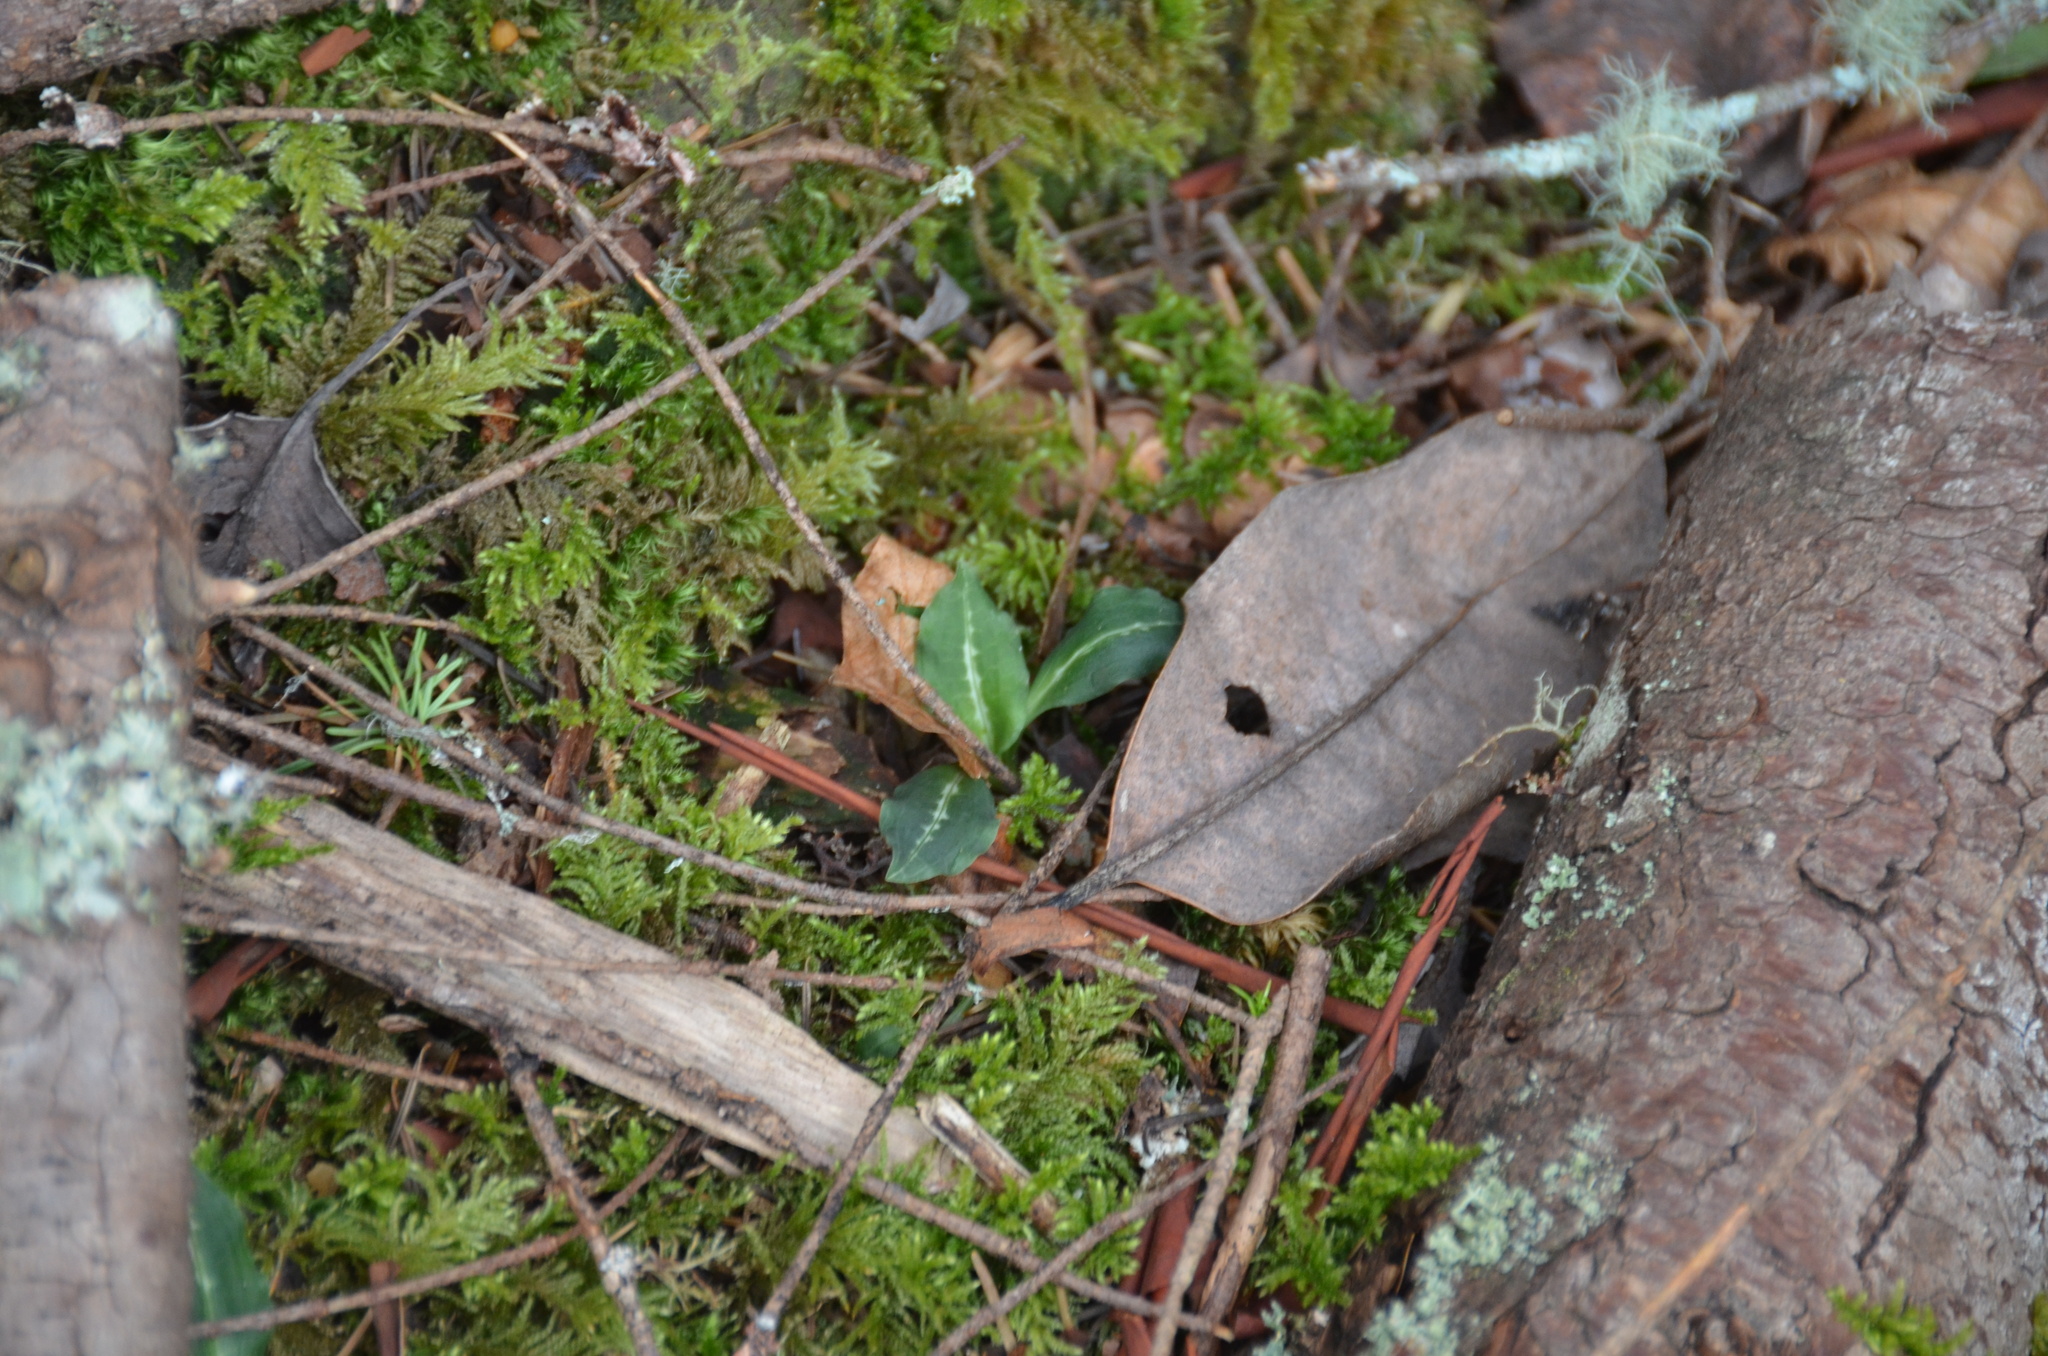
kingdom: Plantae
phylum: Tracheophyta
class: Liliopsida
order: Asparagales
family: Orchidaceae
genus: Goodyera
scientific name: Goodyera oblongifolia
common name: Giant rattlesnake-plantain
